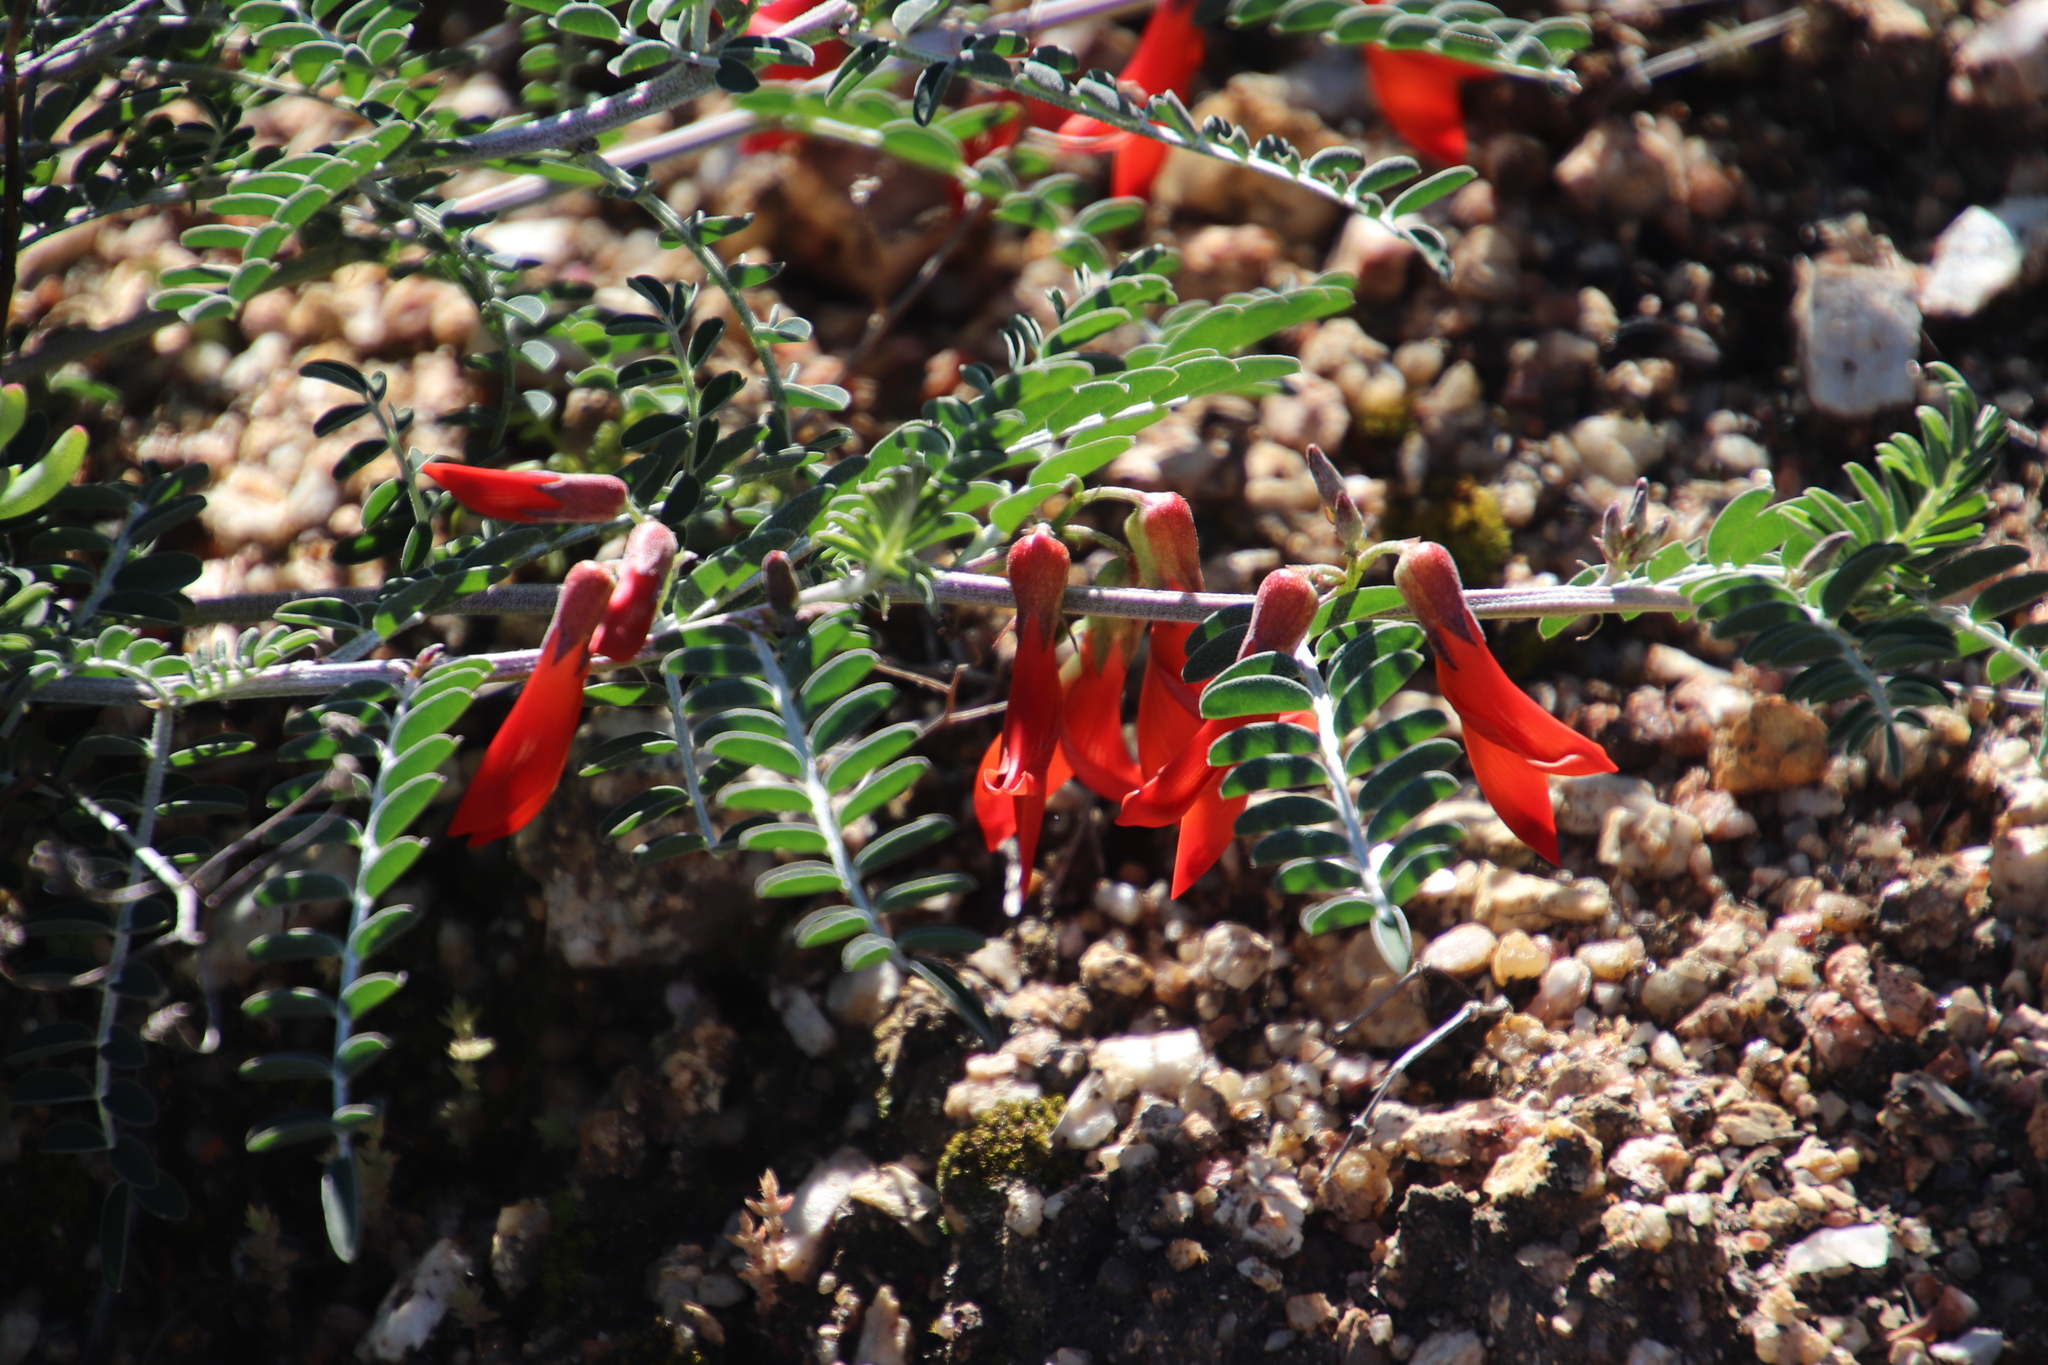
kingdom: Plantae
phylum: Tracheophyta
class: Magnoliopsida
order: Fabales
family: Fabaceae
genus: Lessertia
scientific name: Lessertia frutescens
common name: Balloon-pea
